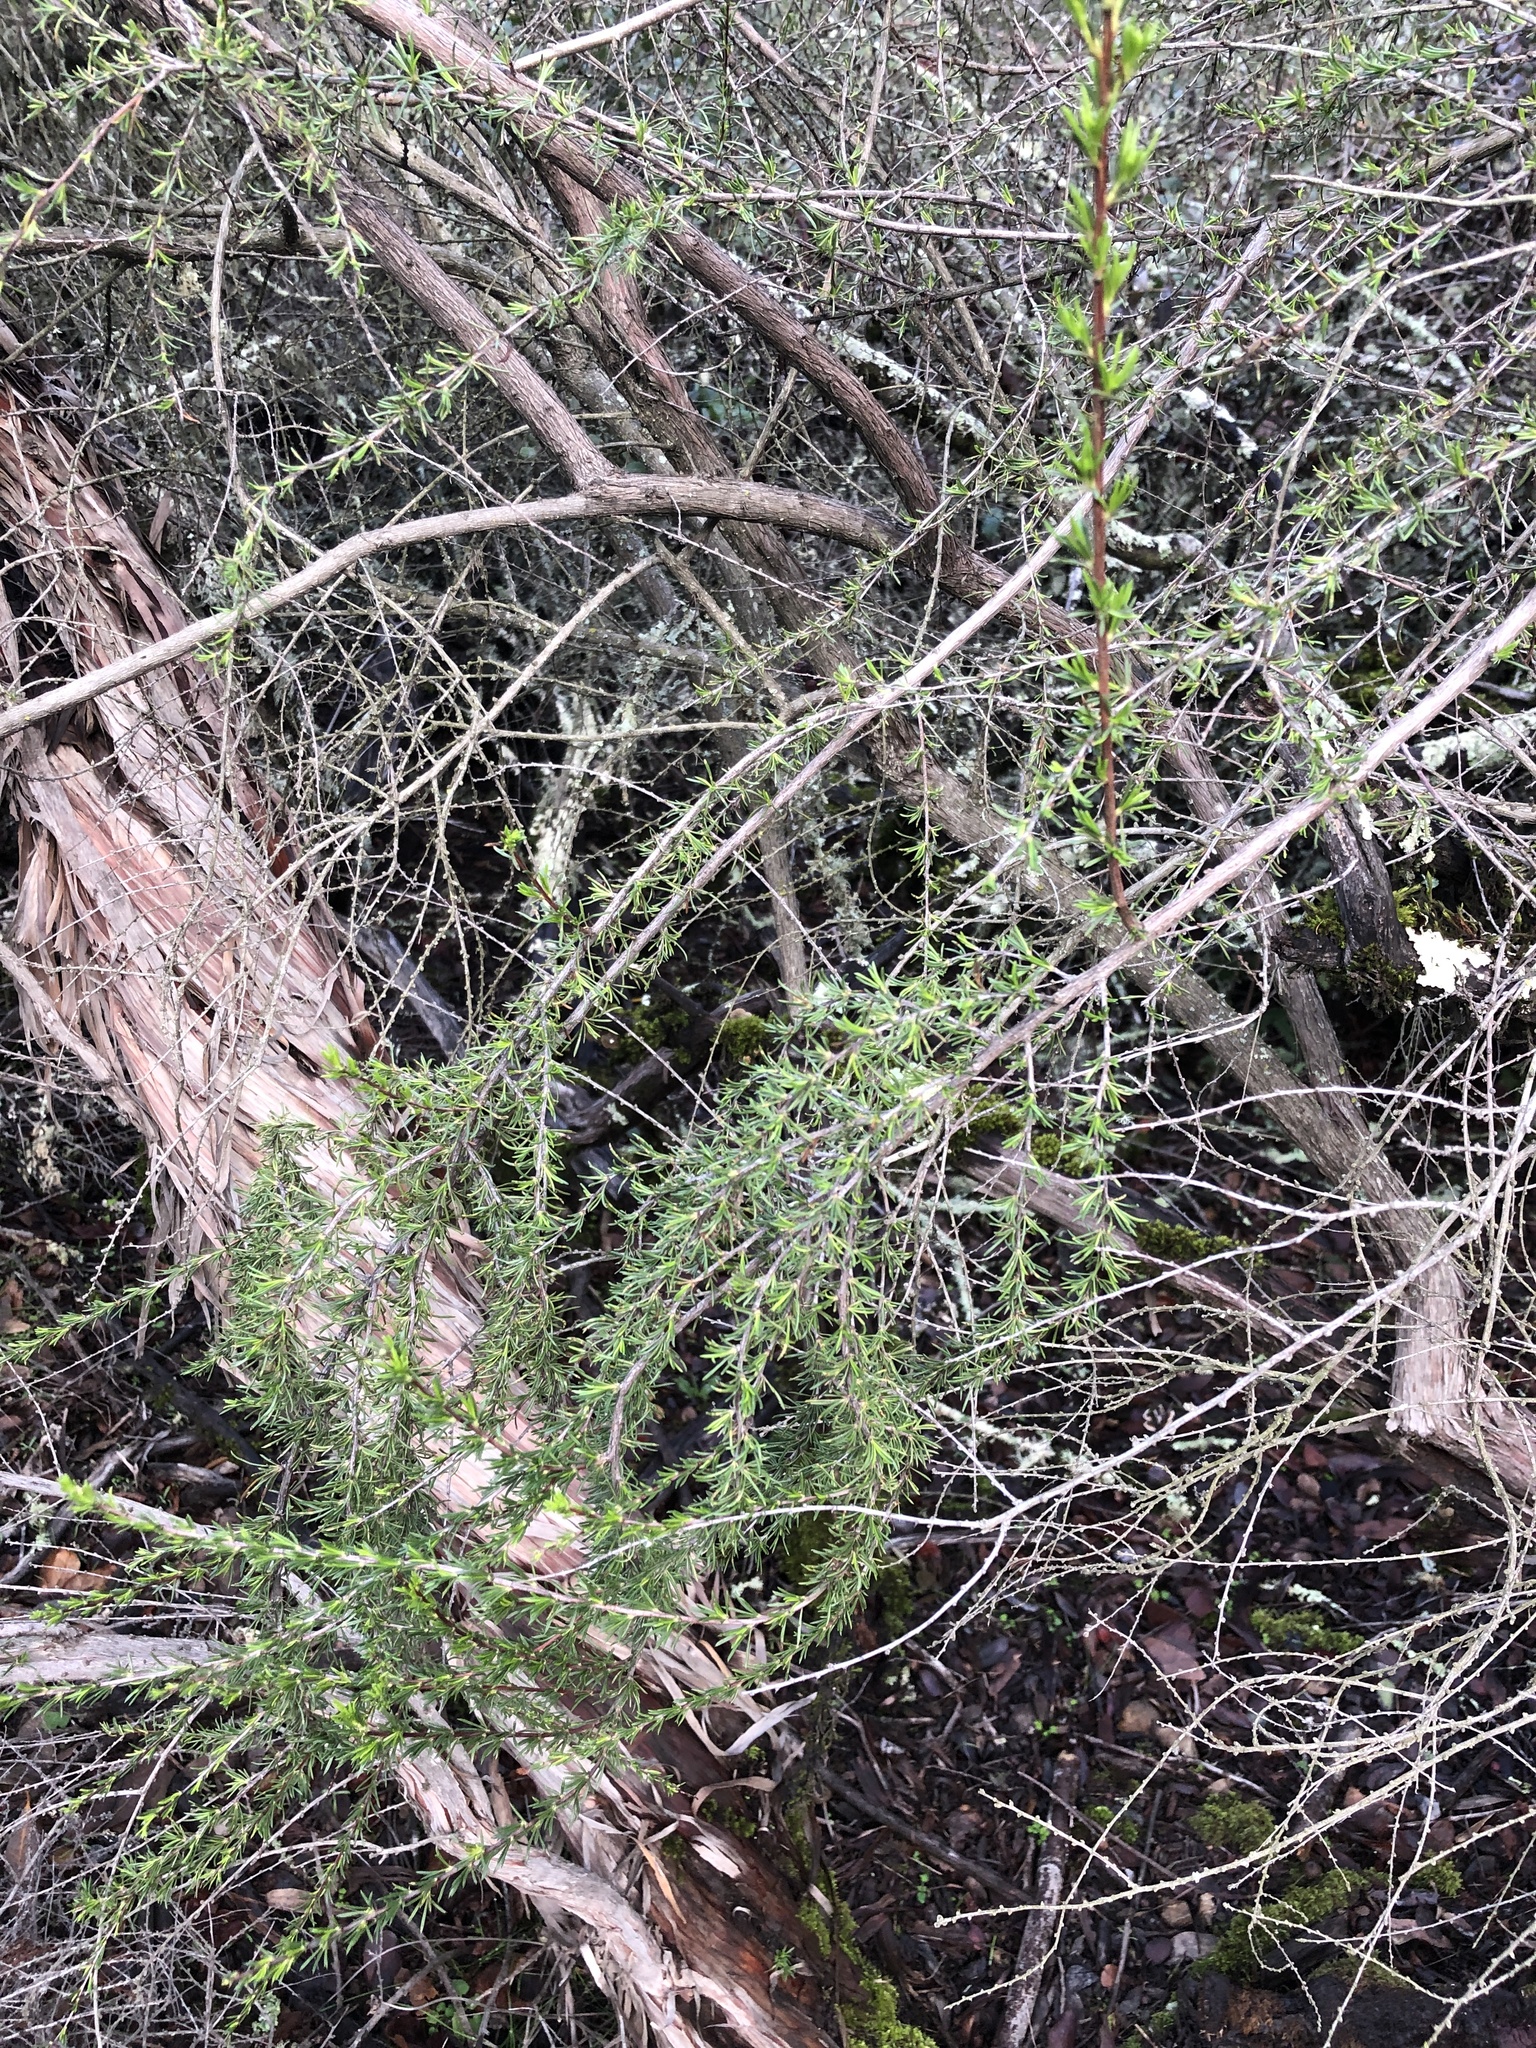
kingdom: Plantae
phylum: Tracheophyta
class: Magnoliopsida
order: Rosales
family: Rosaceae
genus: Adenostoma
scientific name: Adenostoma fasciculatum
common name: Chamise
